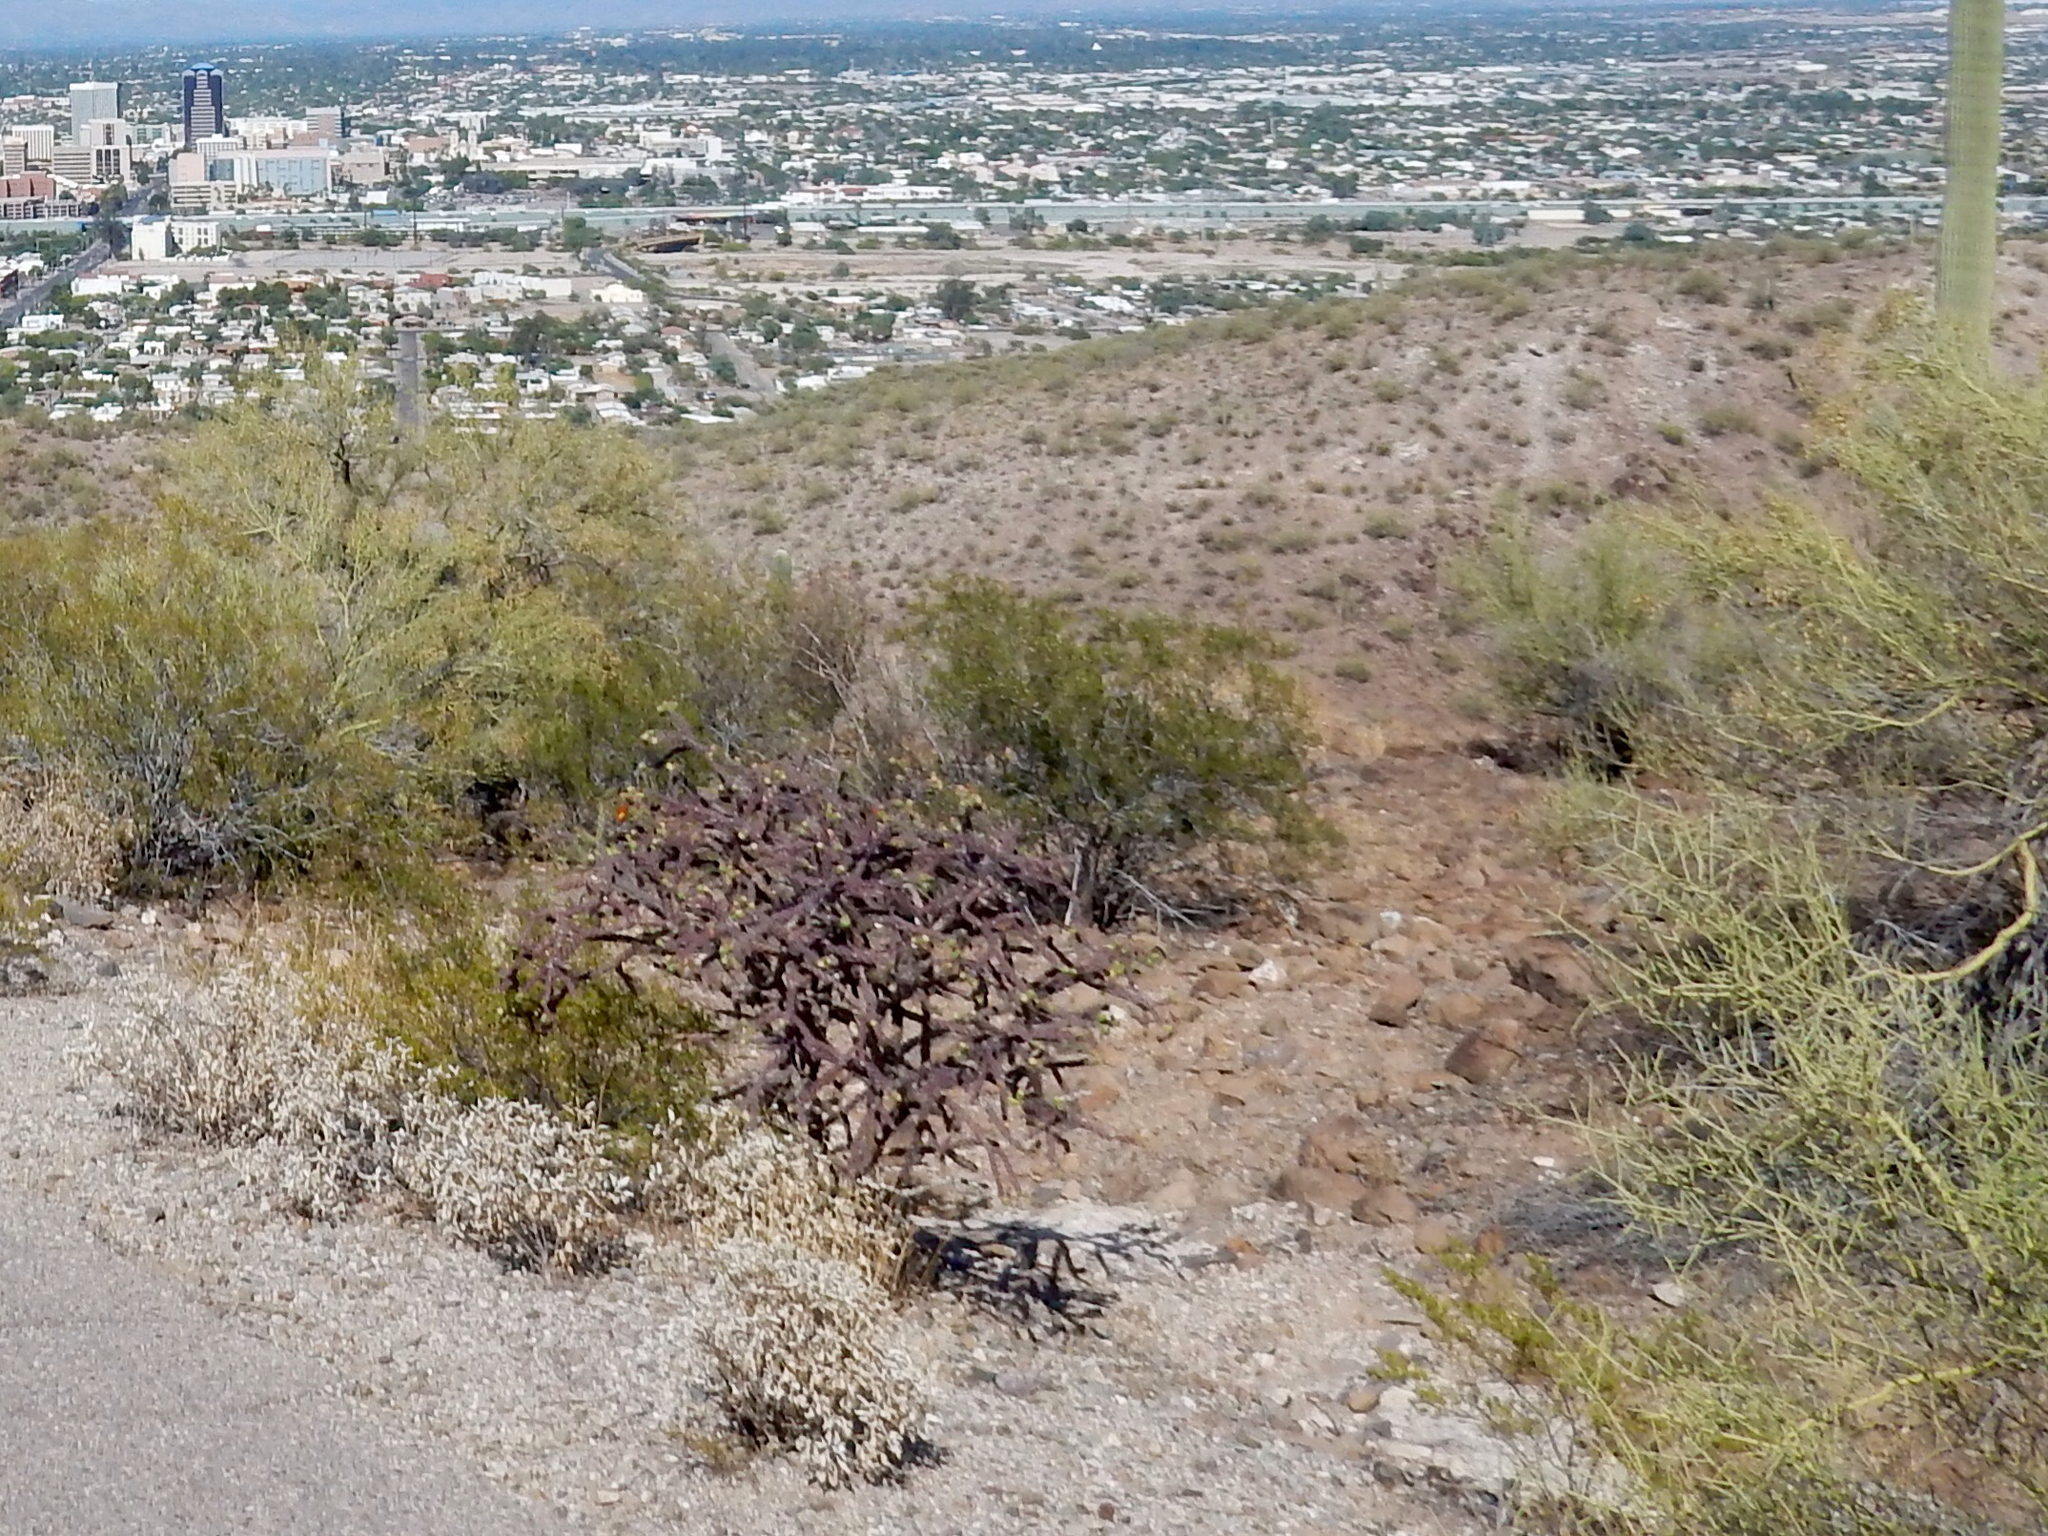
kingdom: Plantae
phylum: Tracheophyta
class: Magnoliopsida
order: Caryophyllales
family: Cactaceae
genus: Cylindropuntia
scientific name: Cylindropuntia thurberi
